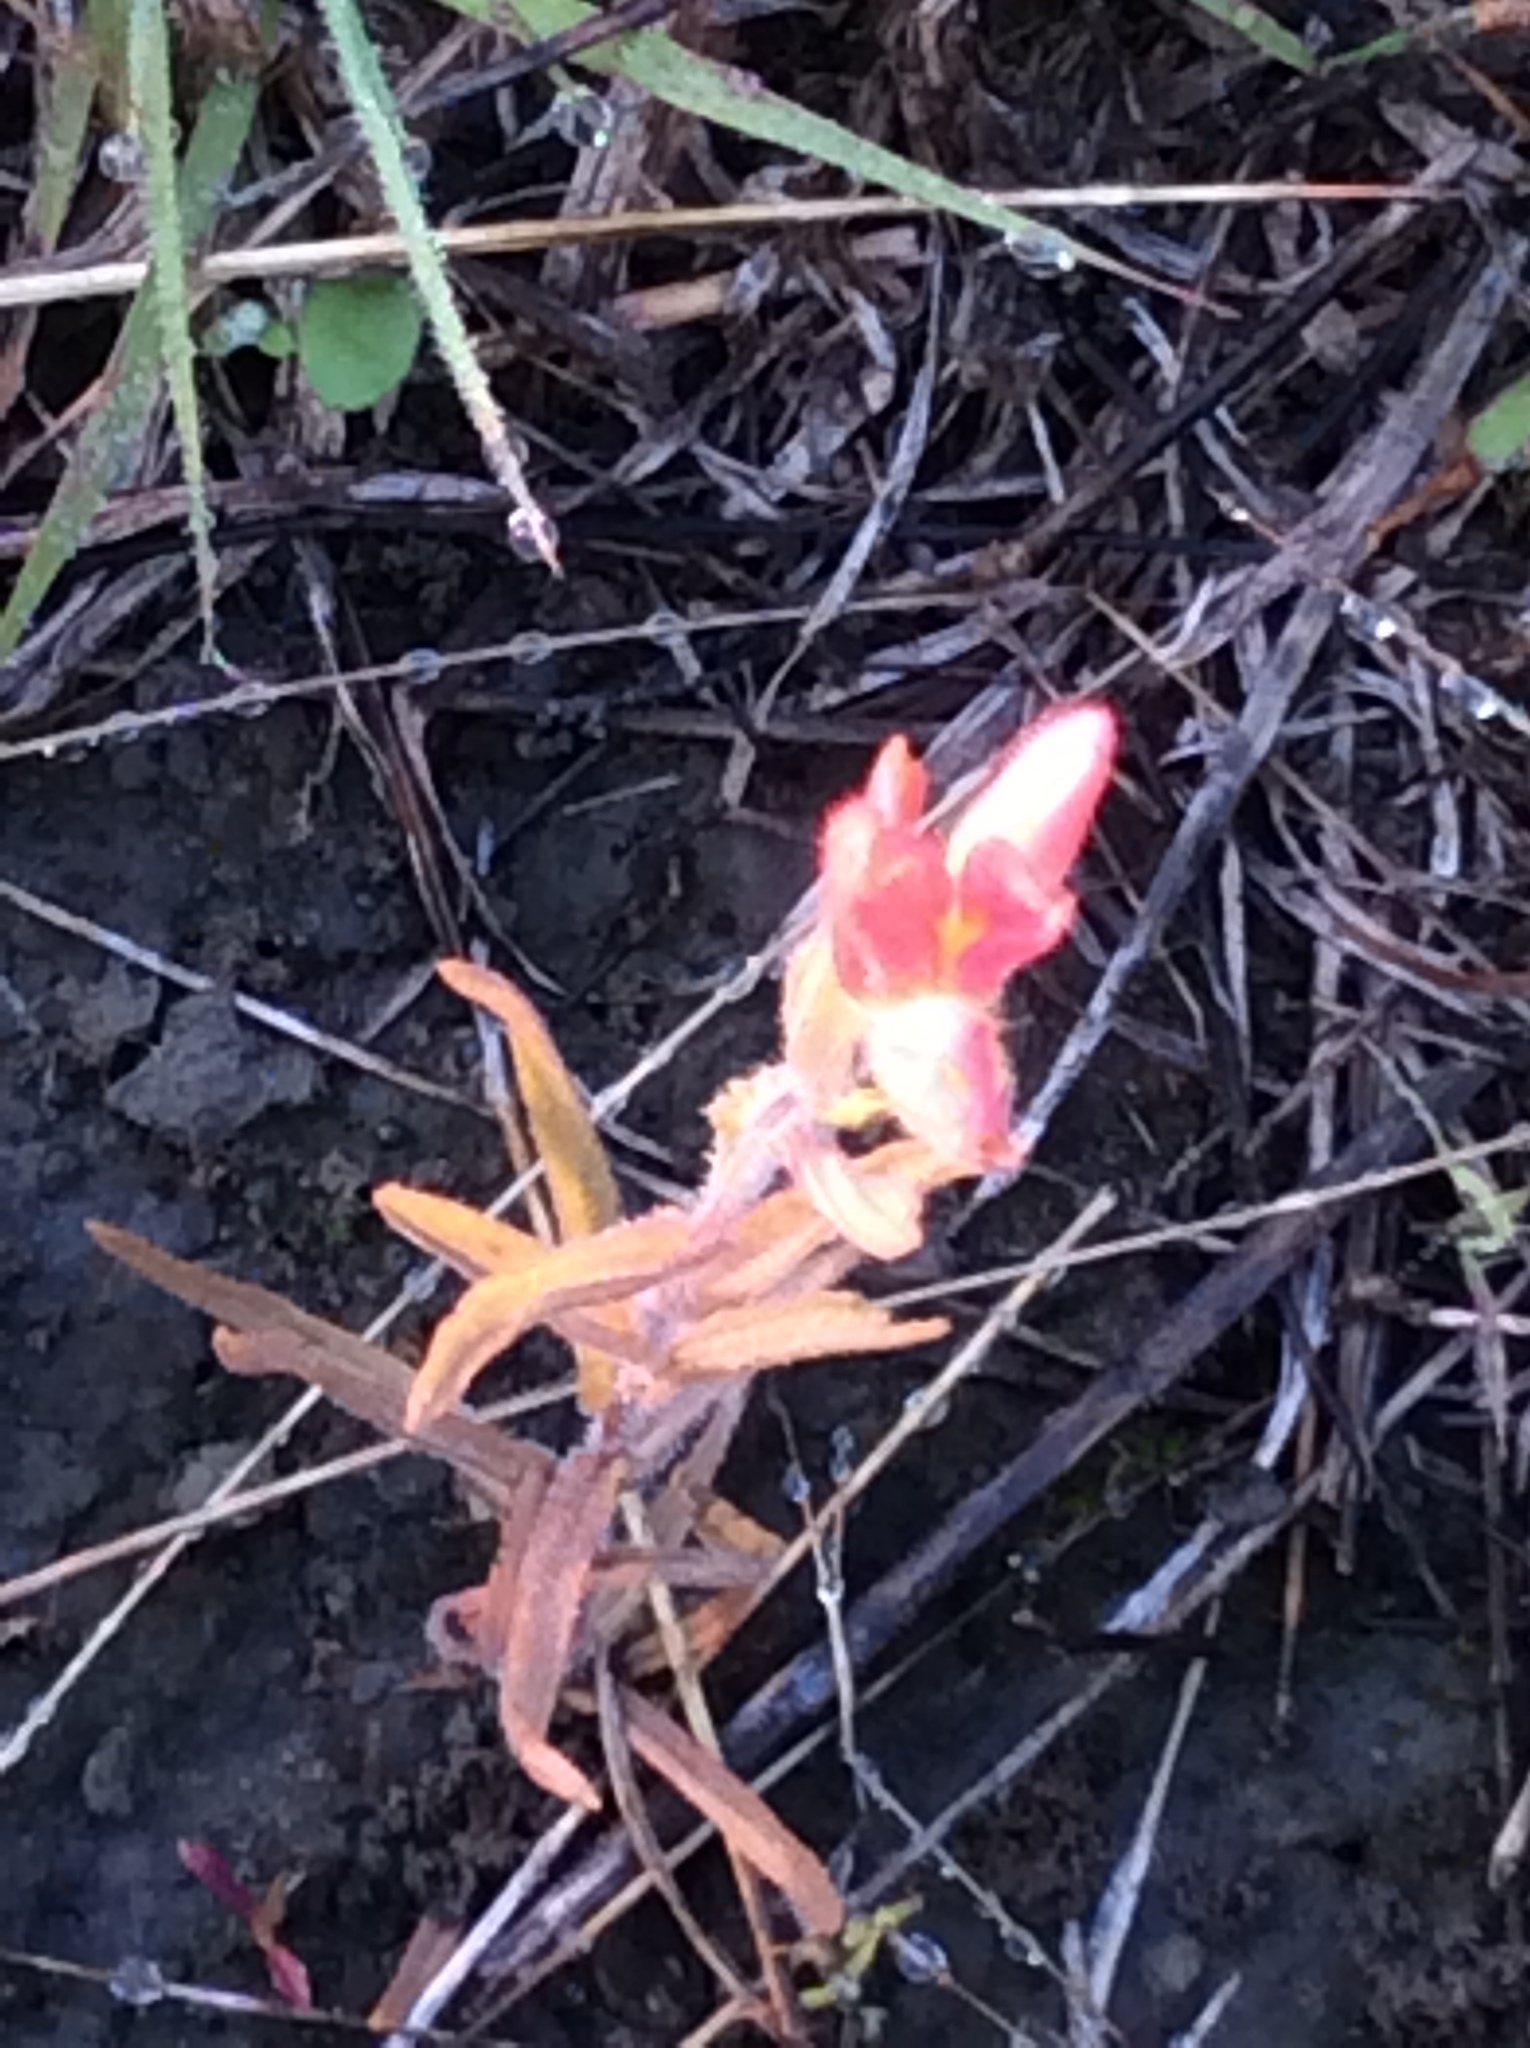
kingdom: Plantae
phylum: Tracheophyta
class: Magnoliopsida
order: Lamiales
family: Orobanchaceae
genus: Castilleja
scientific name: Castilleja indivisa
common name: Texas paintbrush
